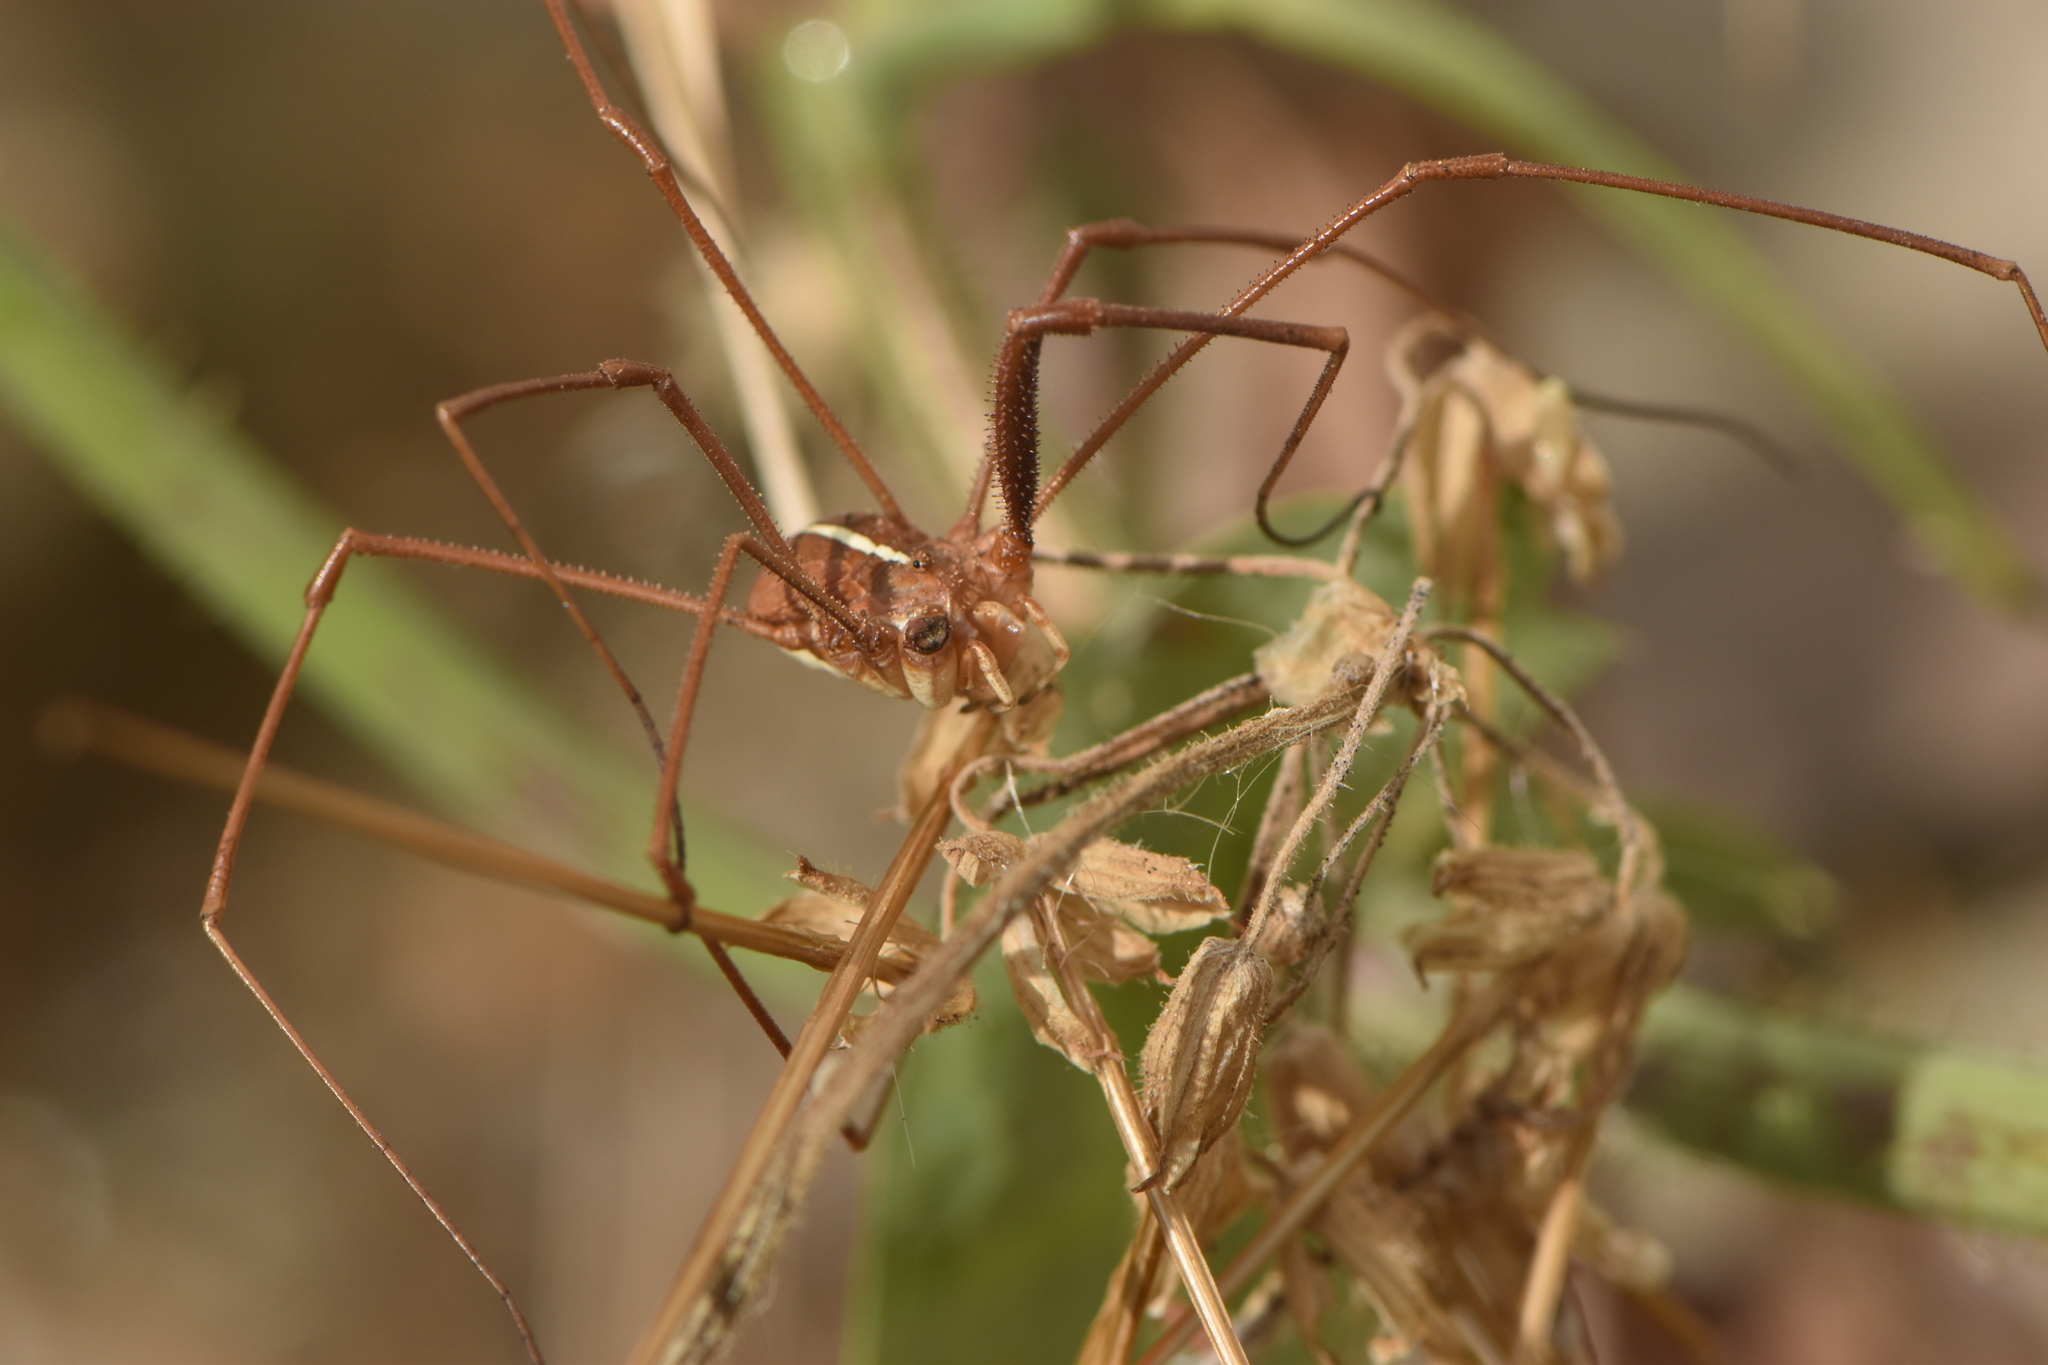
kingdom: Animalia
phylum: Arthropoda
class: Arachnida
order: Opiliones
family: Phalangiidae
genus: Metaphalangium
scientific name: Metaphalangium cirtanum
